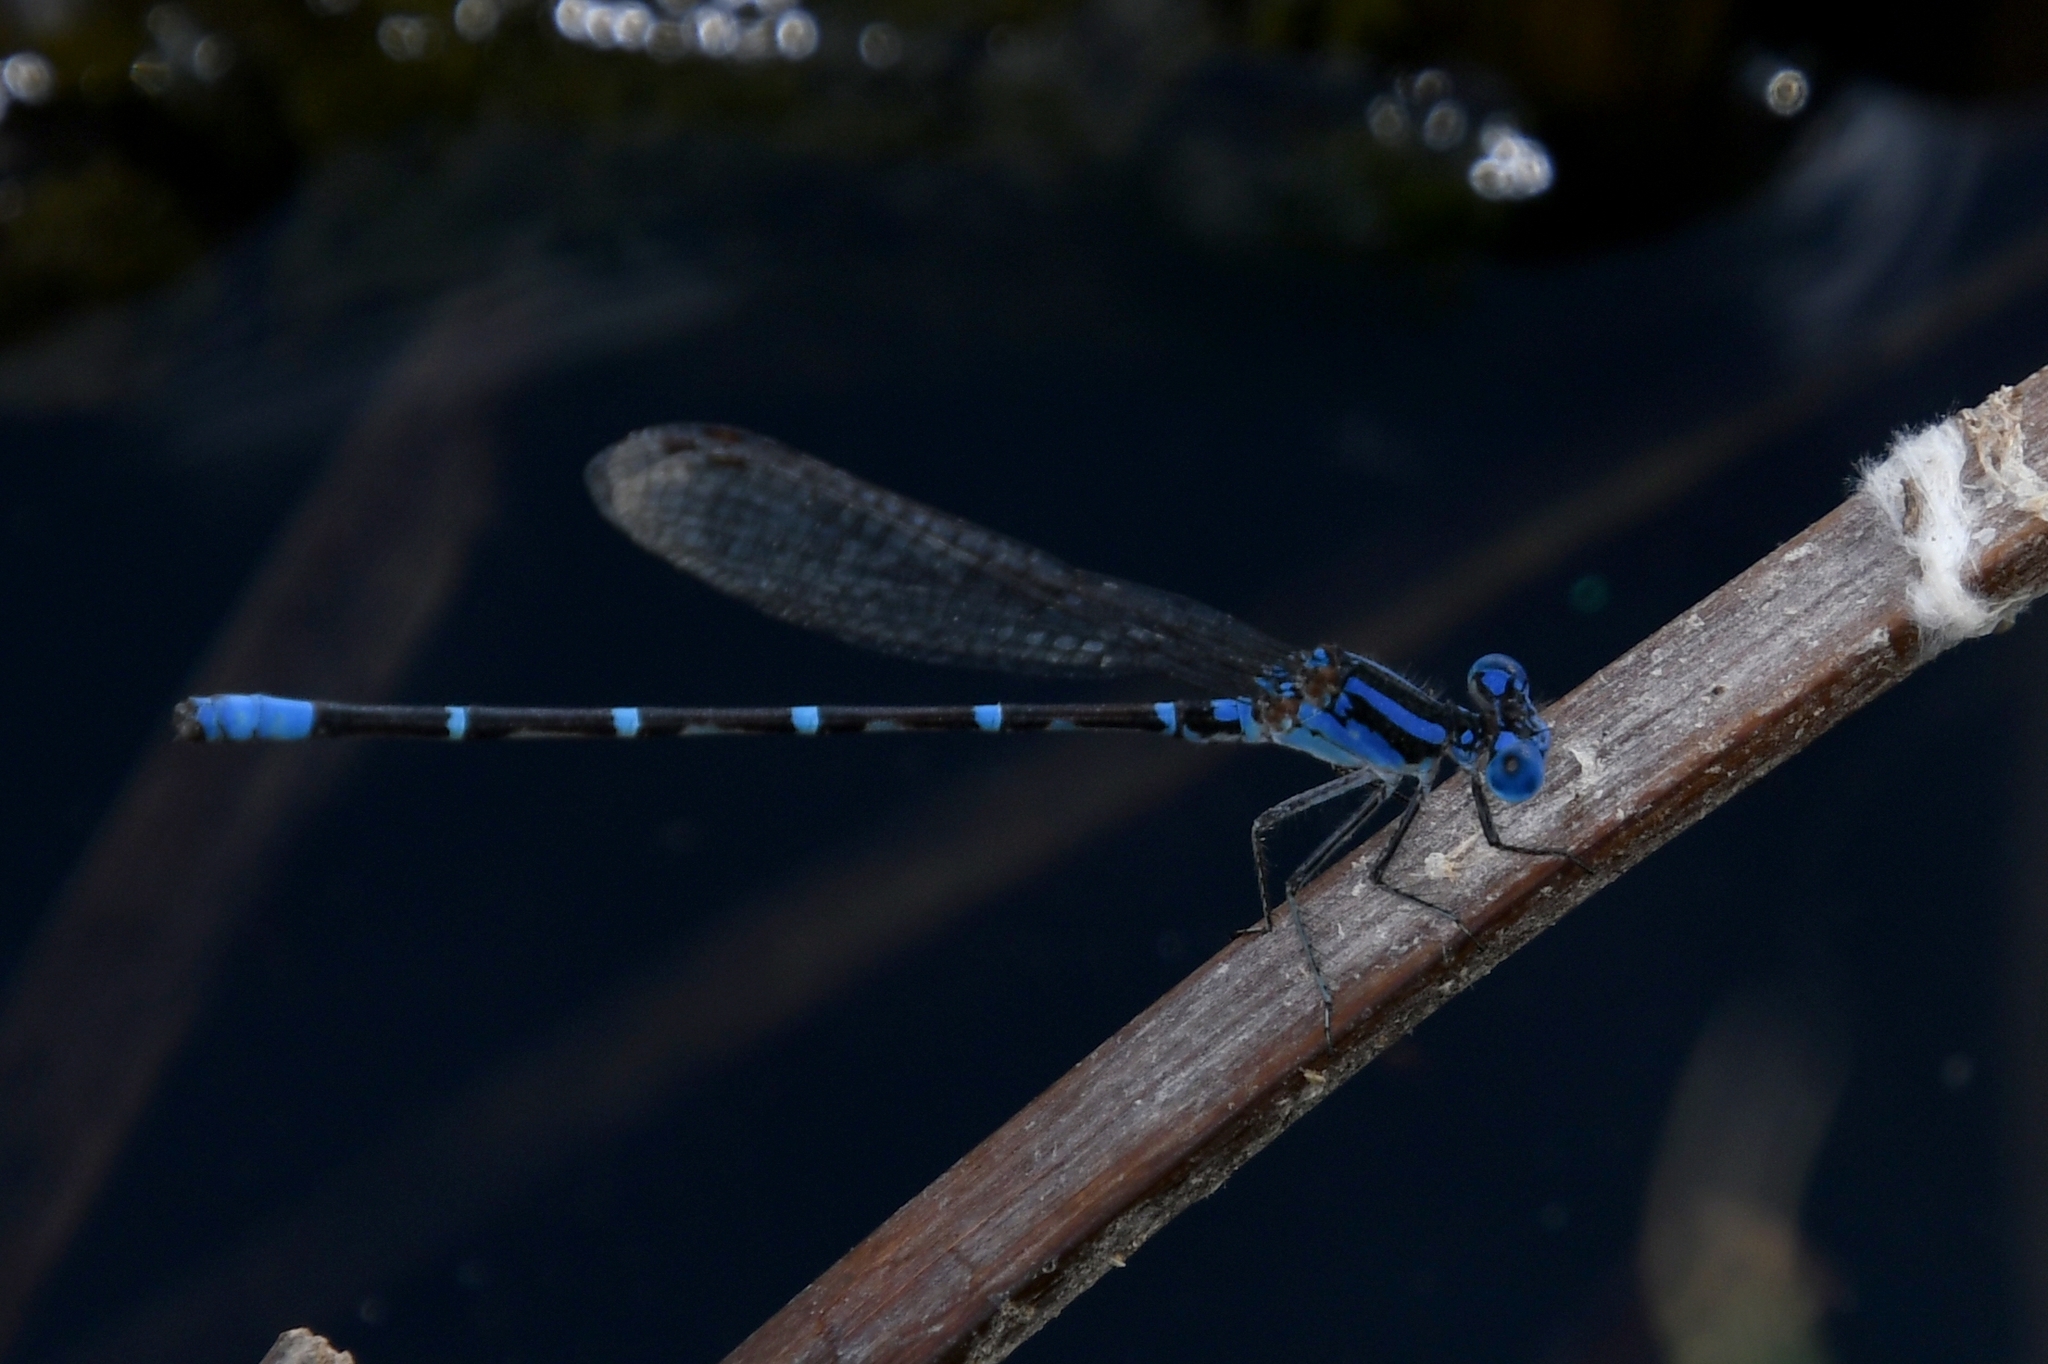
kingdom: Animalia
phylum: Arthropoda
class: Insecta
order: Odonata
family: Coenagrionidae
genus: Argia
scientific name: Argia sedula
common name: Blue-ringed dancer
